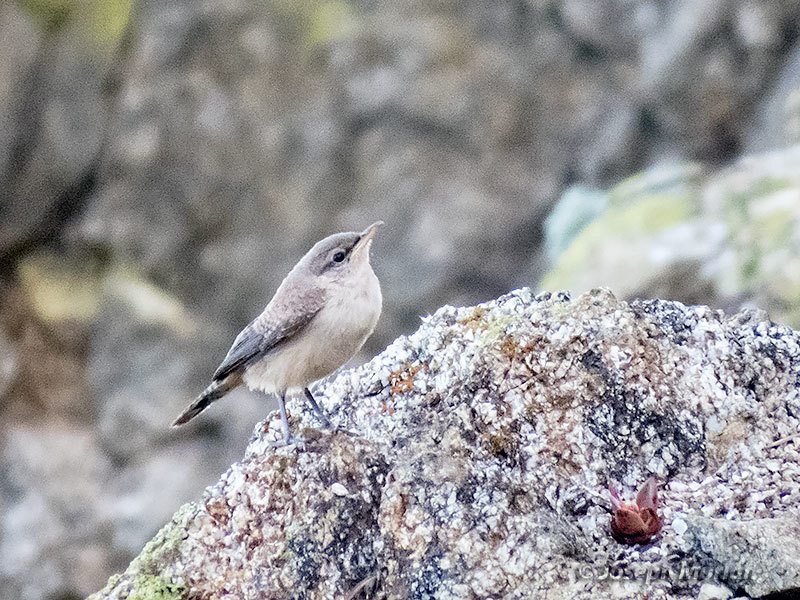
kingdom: Animalia
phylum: Chordata
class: Aves
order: Passeriformes
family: Troglodytidae
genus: Salpinctes
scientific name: Salpinctes obsoletus
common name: Rock wren
